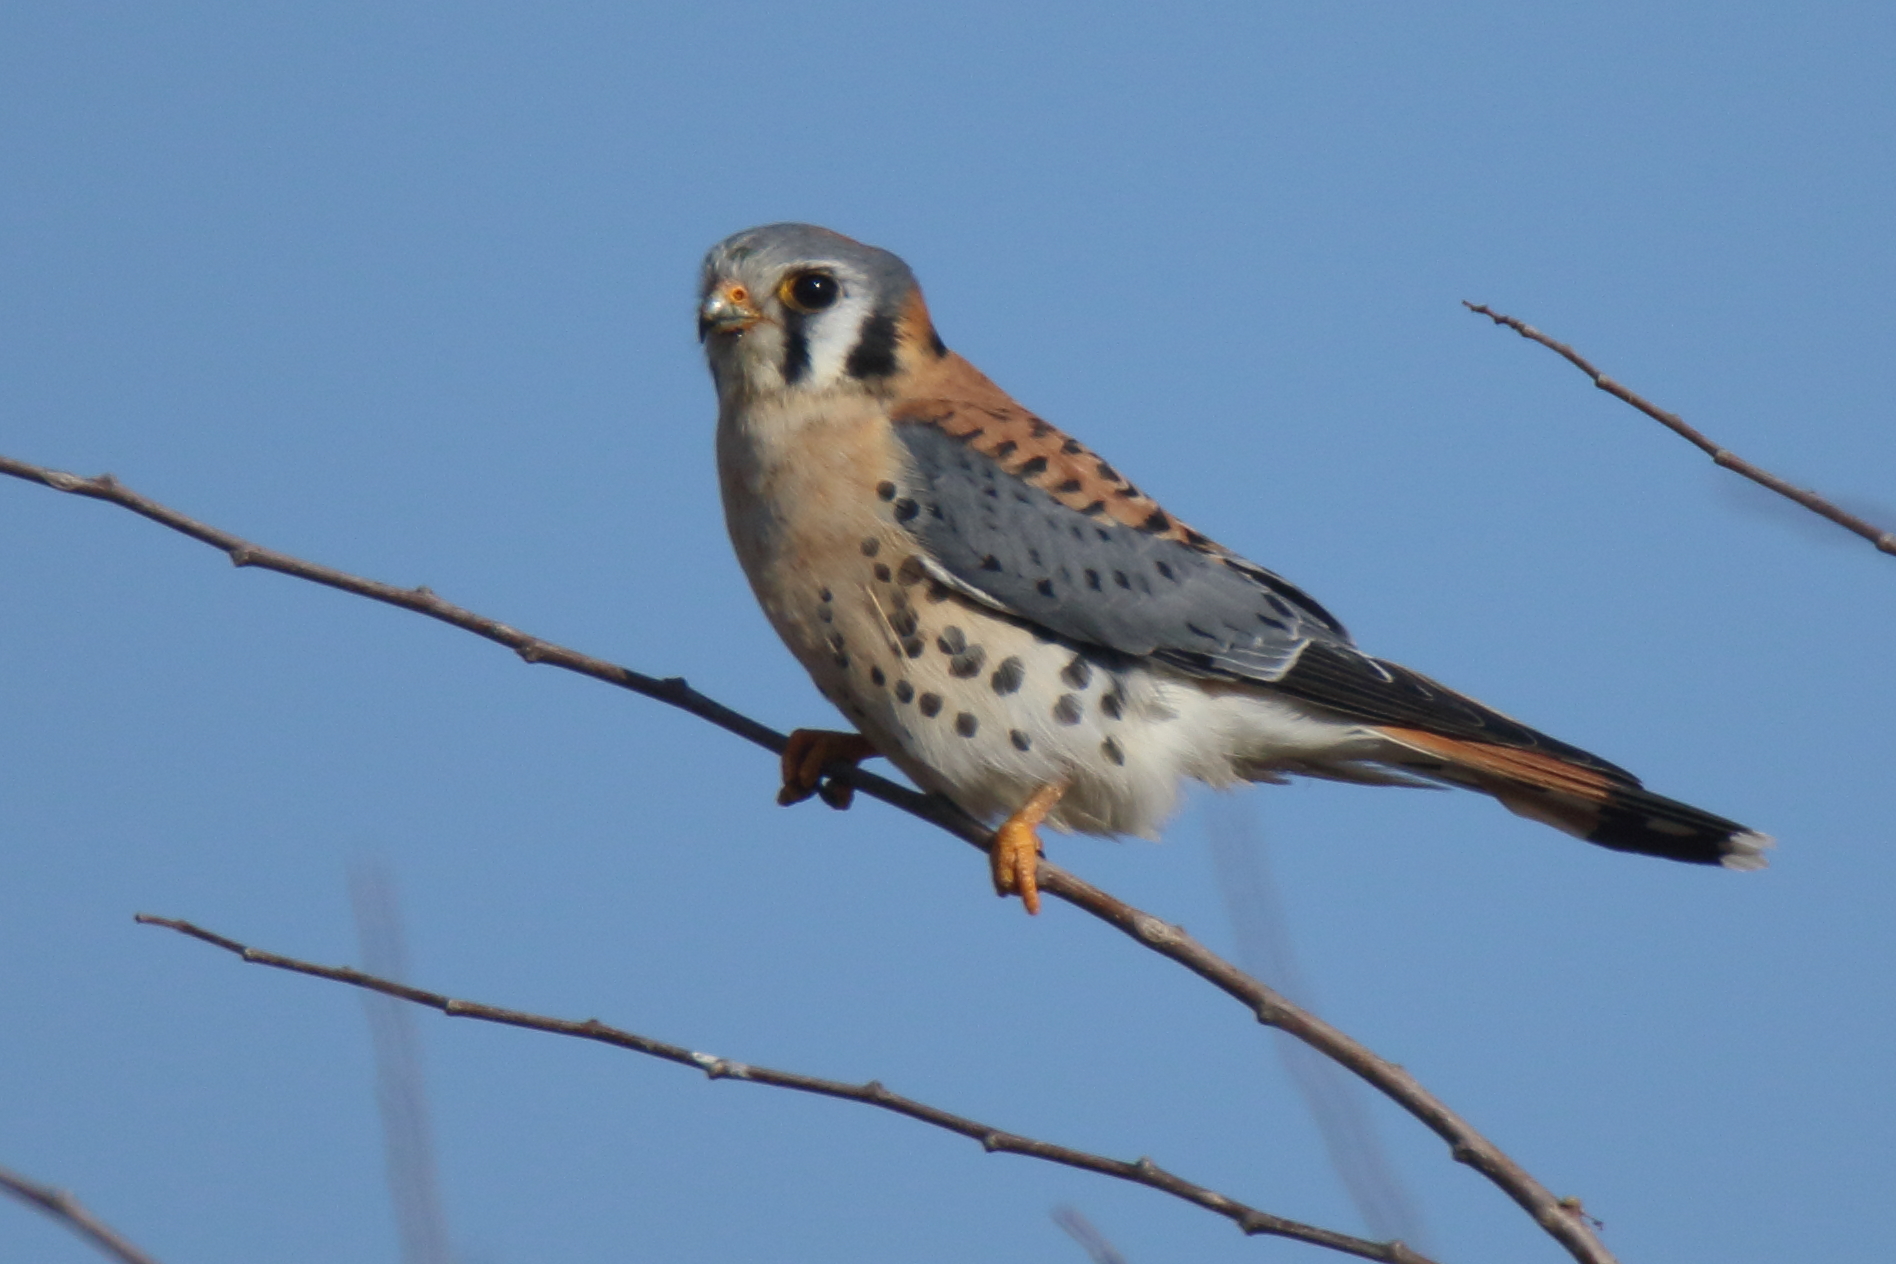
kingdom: Animalia
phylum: Chordata
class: Aves
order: Falconiformes
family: Falconidae
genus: Falco
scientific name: Falco sparverius
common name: American kestrel
